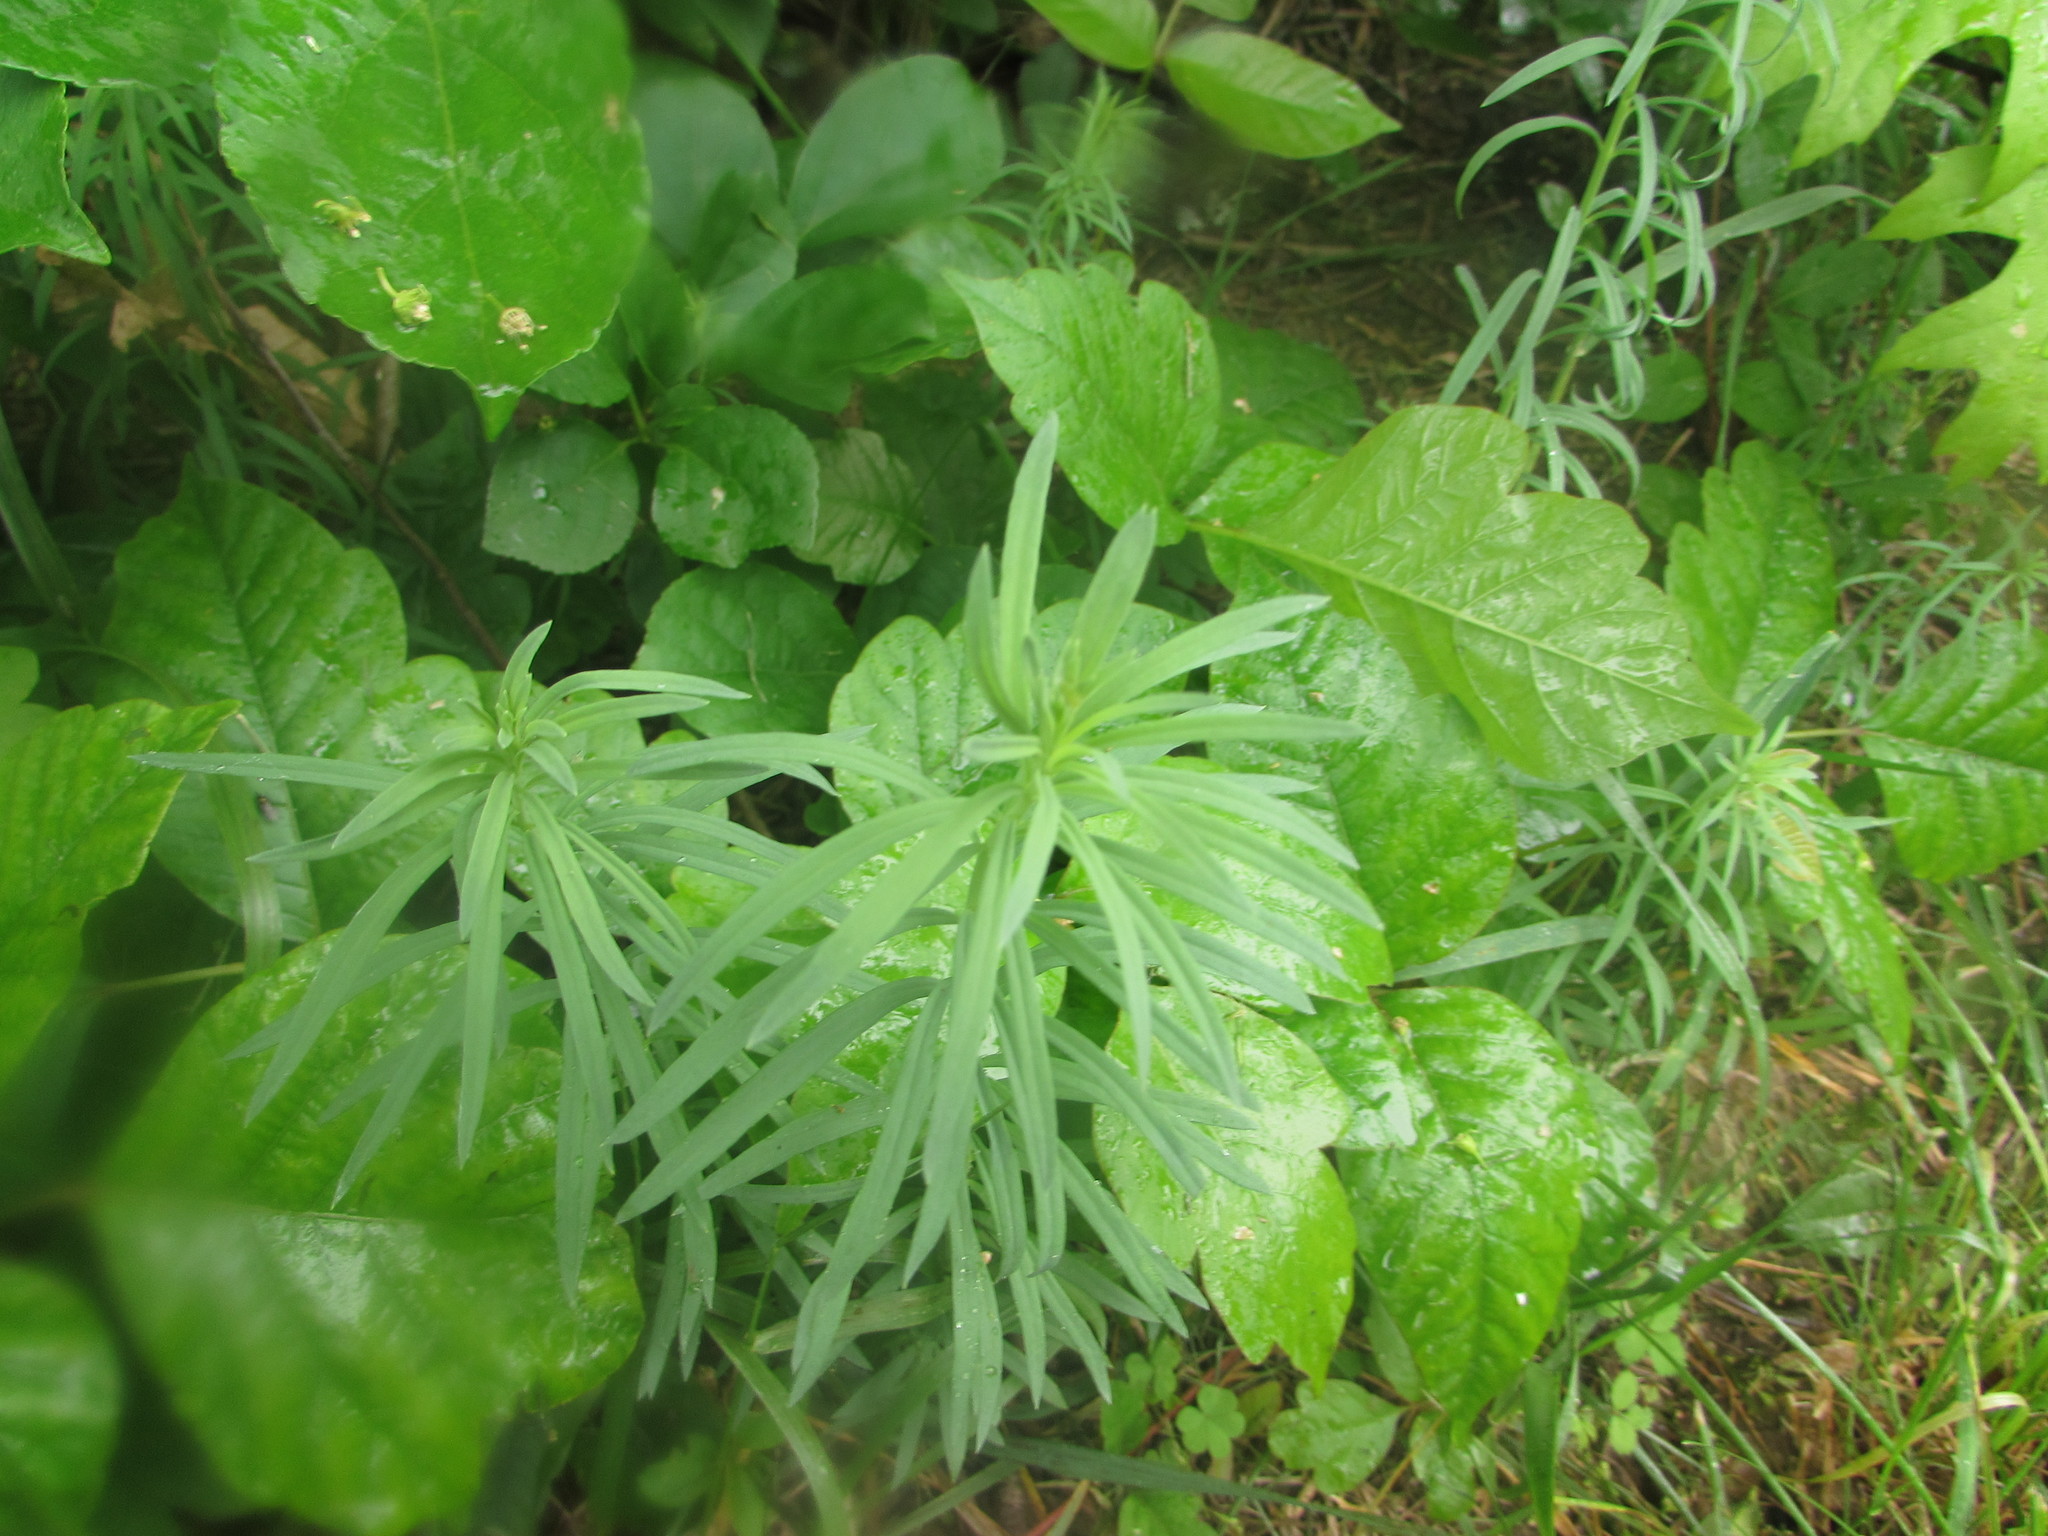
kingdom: Plantae
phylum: Tracheophyta
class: Magnoliopsida
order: Lamiales
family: Plantaginaceae
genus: Linaria
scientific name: Linaria vulgaris
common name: Butter and eggs
